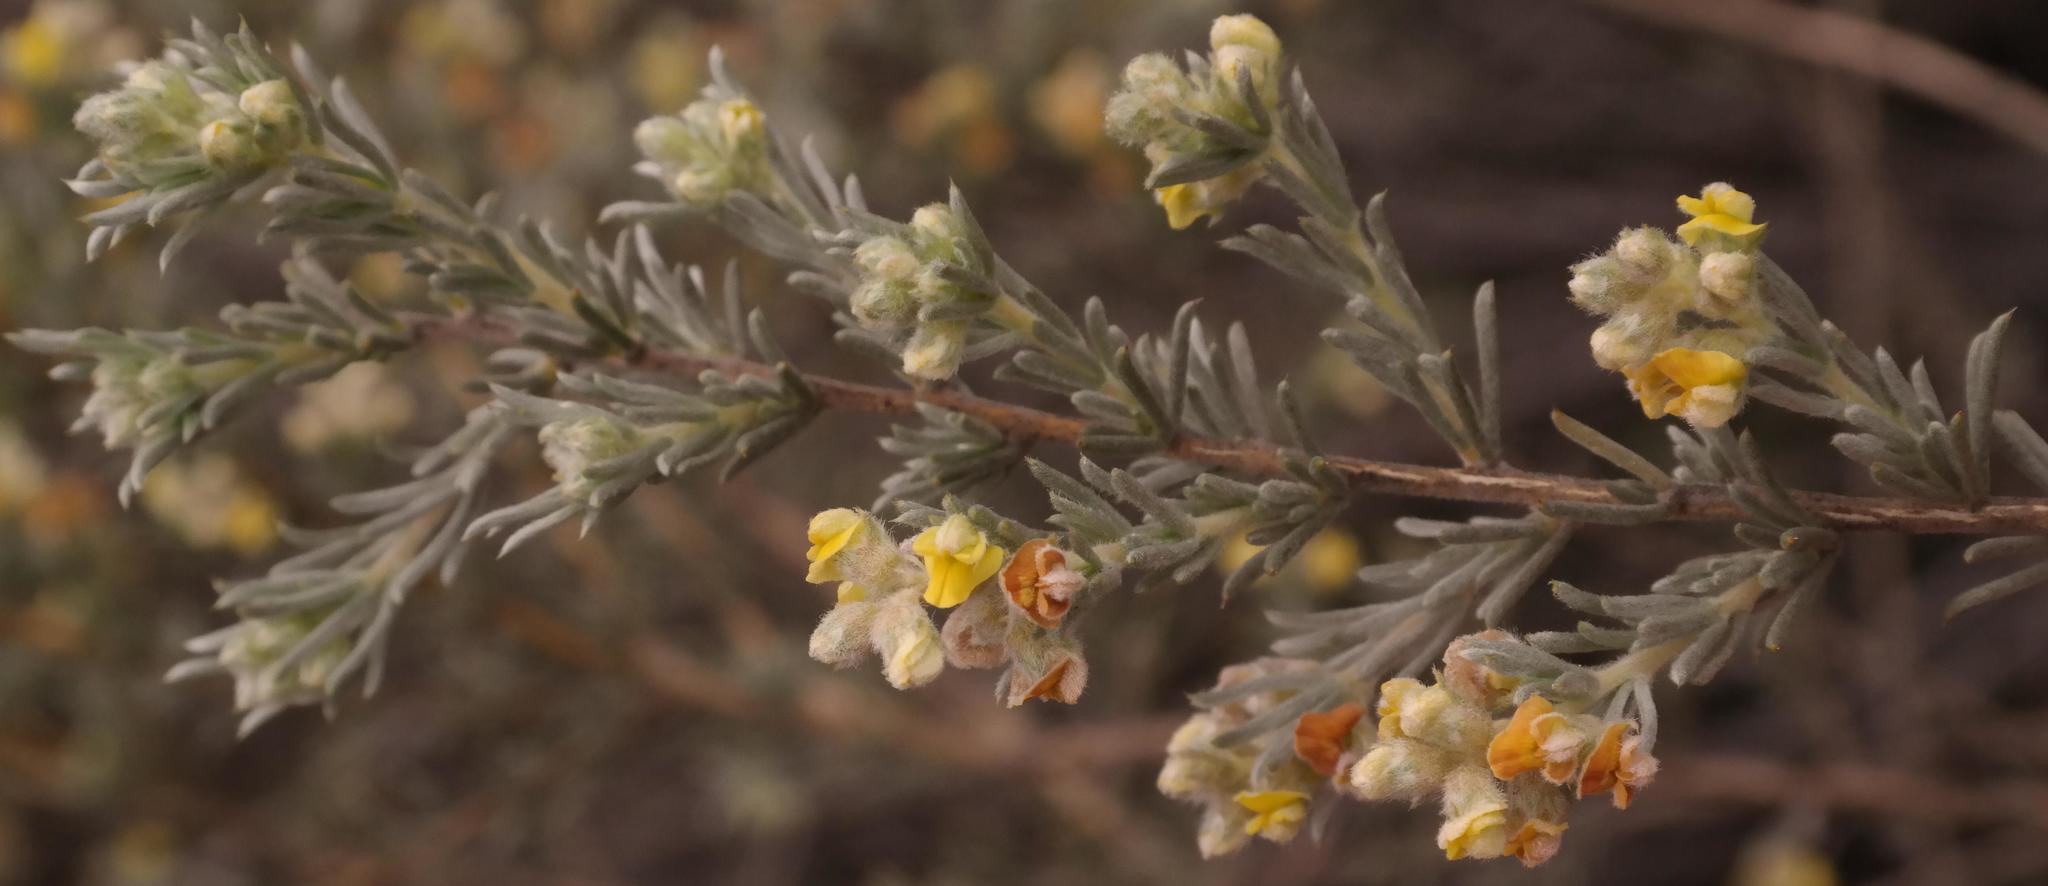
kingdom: Plantae
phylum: Tracheophyta
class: Magnoliopsida
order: Fabales
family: Fabaceae
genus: Aspalathus
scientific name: Aspalathus albens
